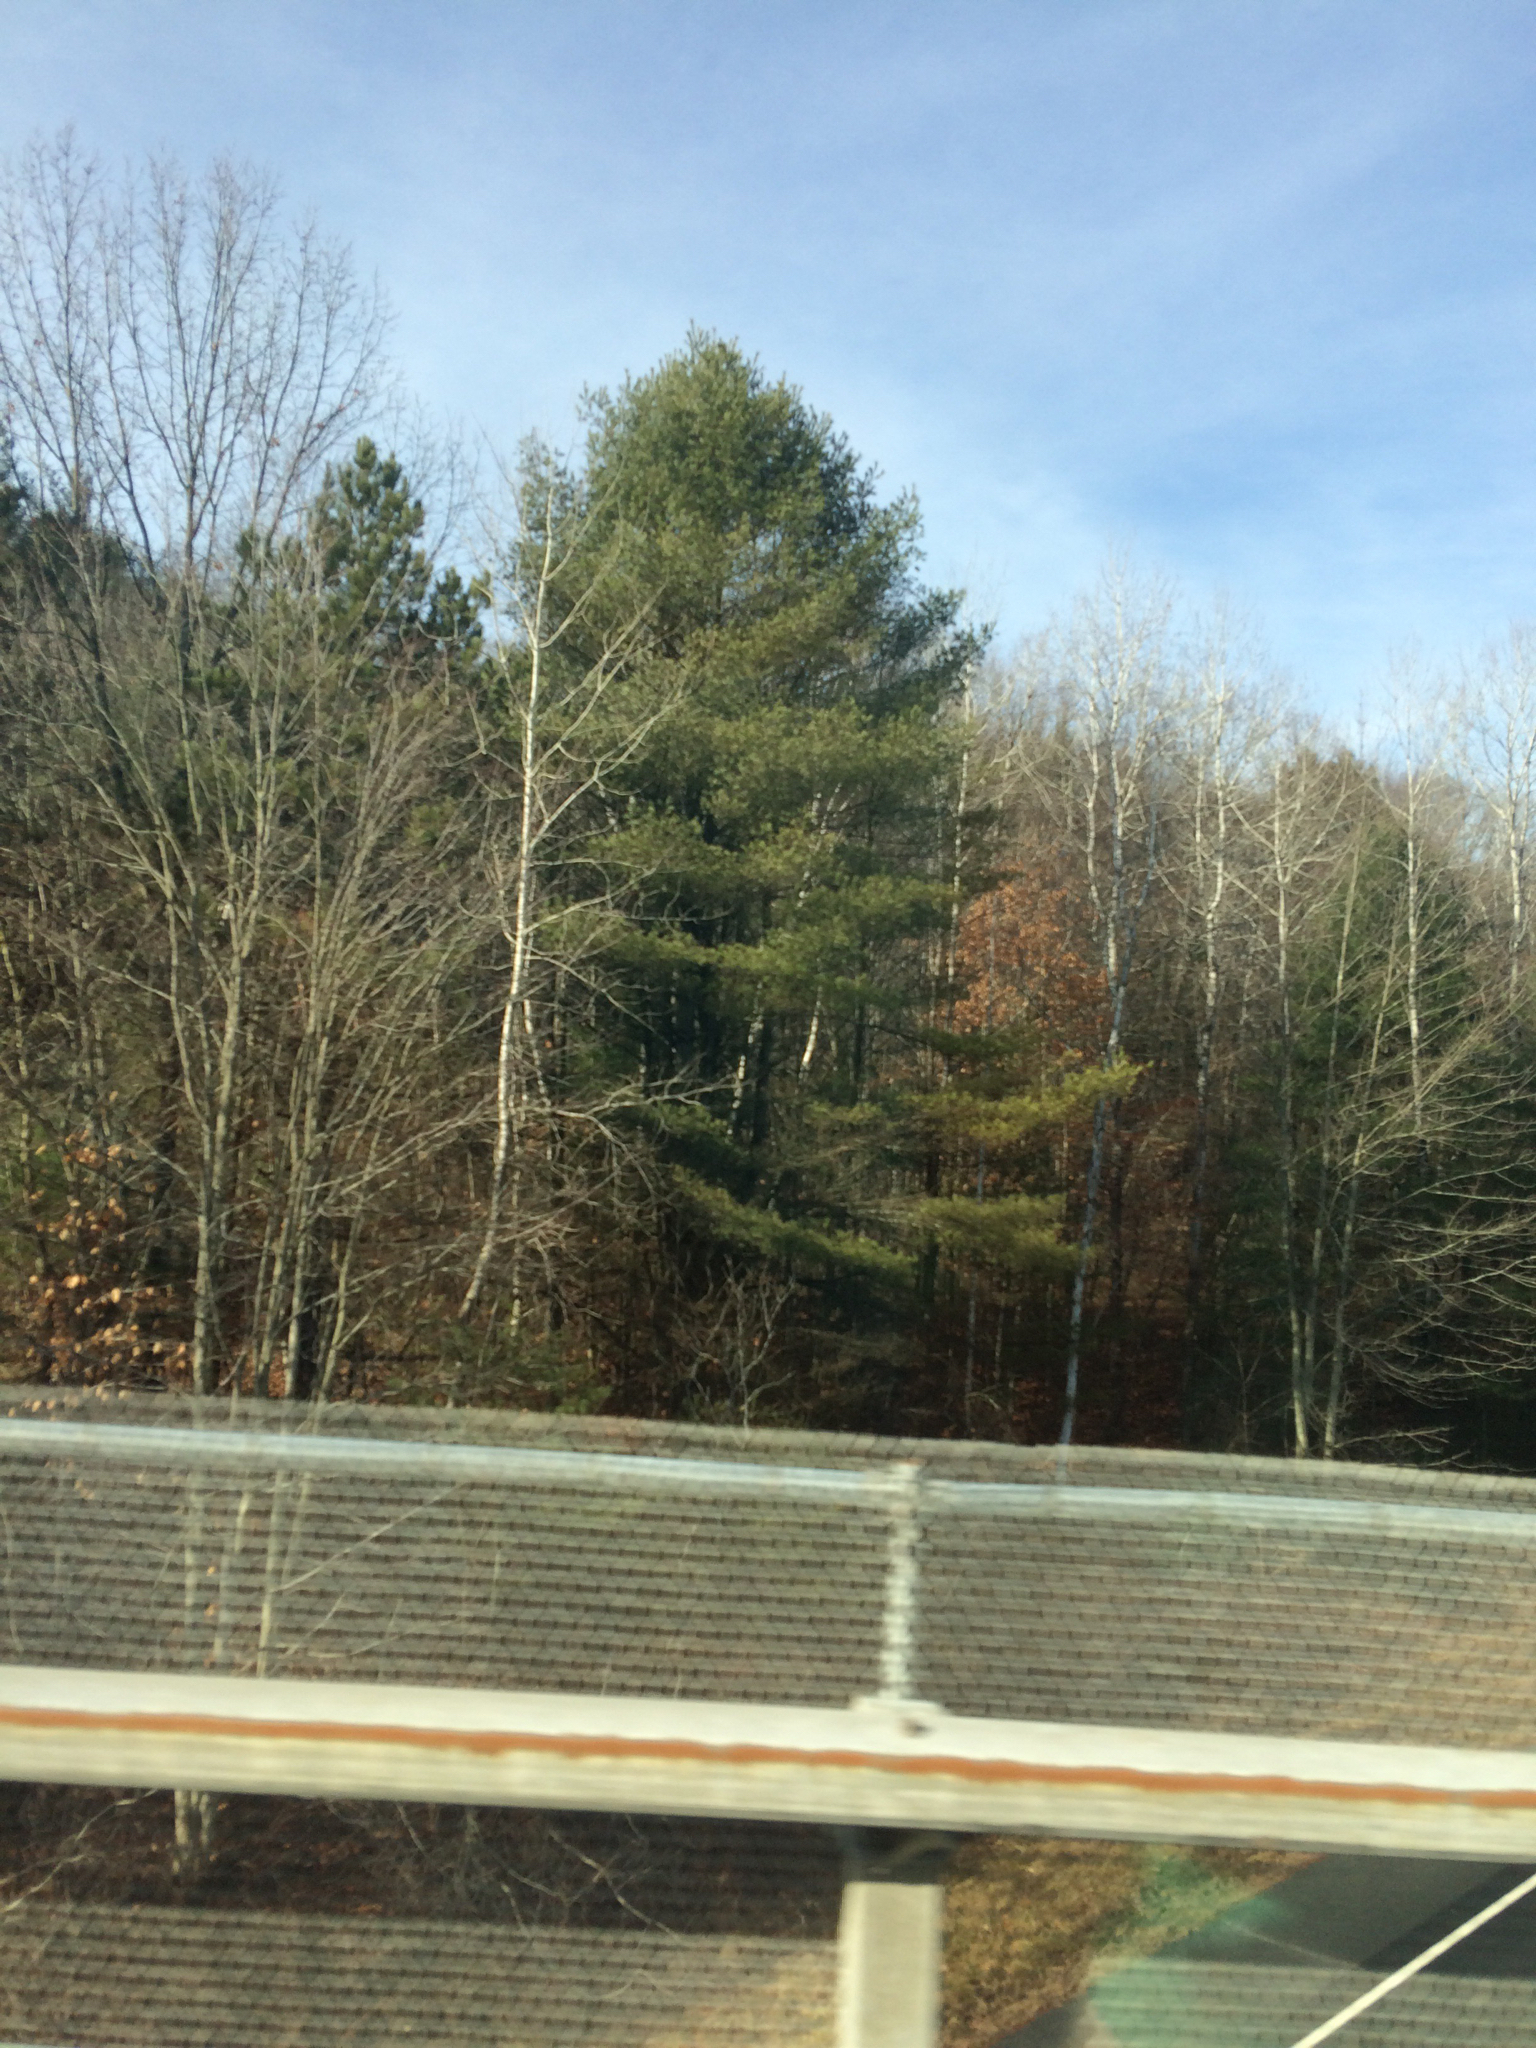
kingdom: Plantae
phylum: Tracheophyta
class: Pinopsida
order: Pinales
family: Pinaceae
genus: Pinus
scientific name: Pinus strobus
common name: Weymouth pine
